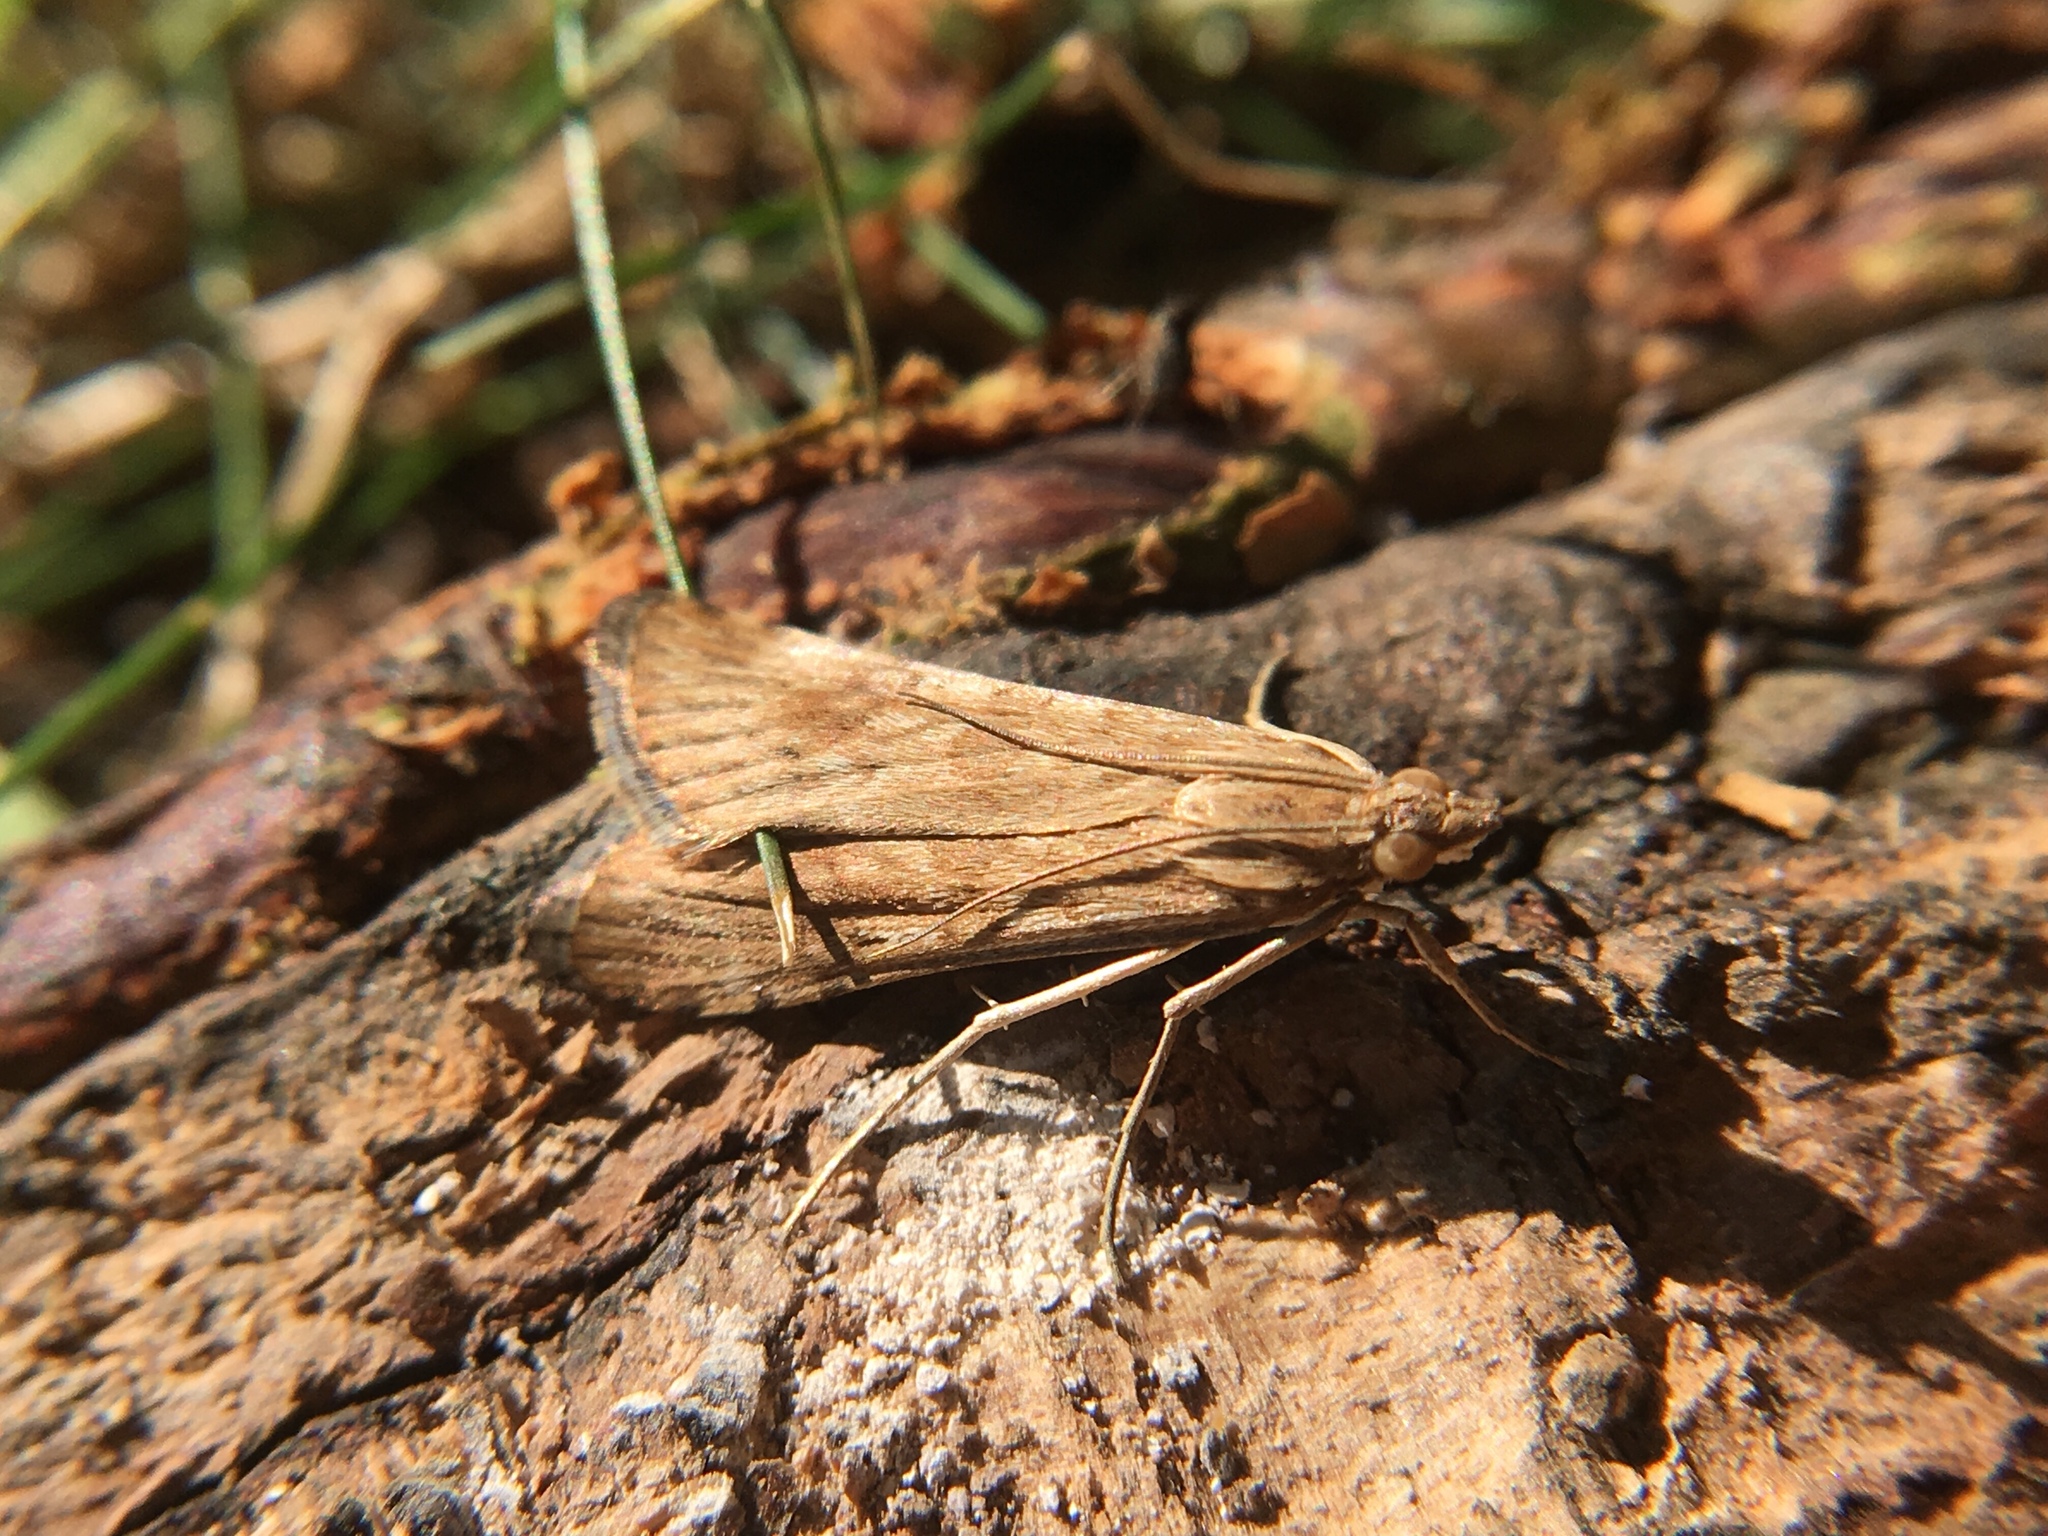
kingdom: Animalia
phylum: Arthropoda
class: Insecta
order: Lepidoptera
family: Crambidae
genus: Nomophila
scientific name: Nomophila nearctica
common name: American rush veneer
